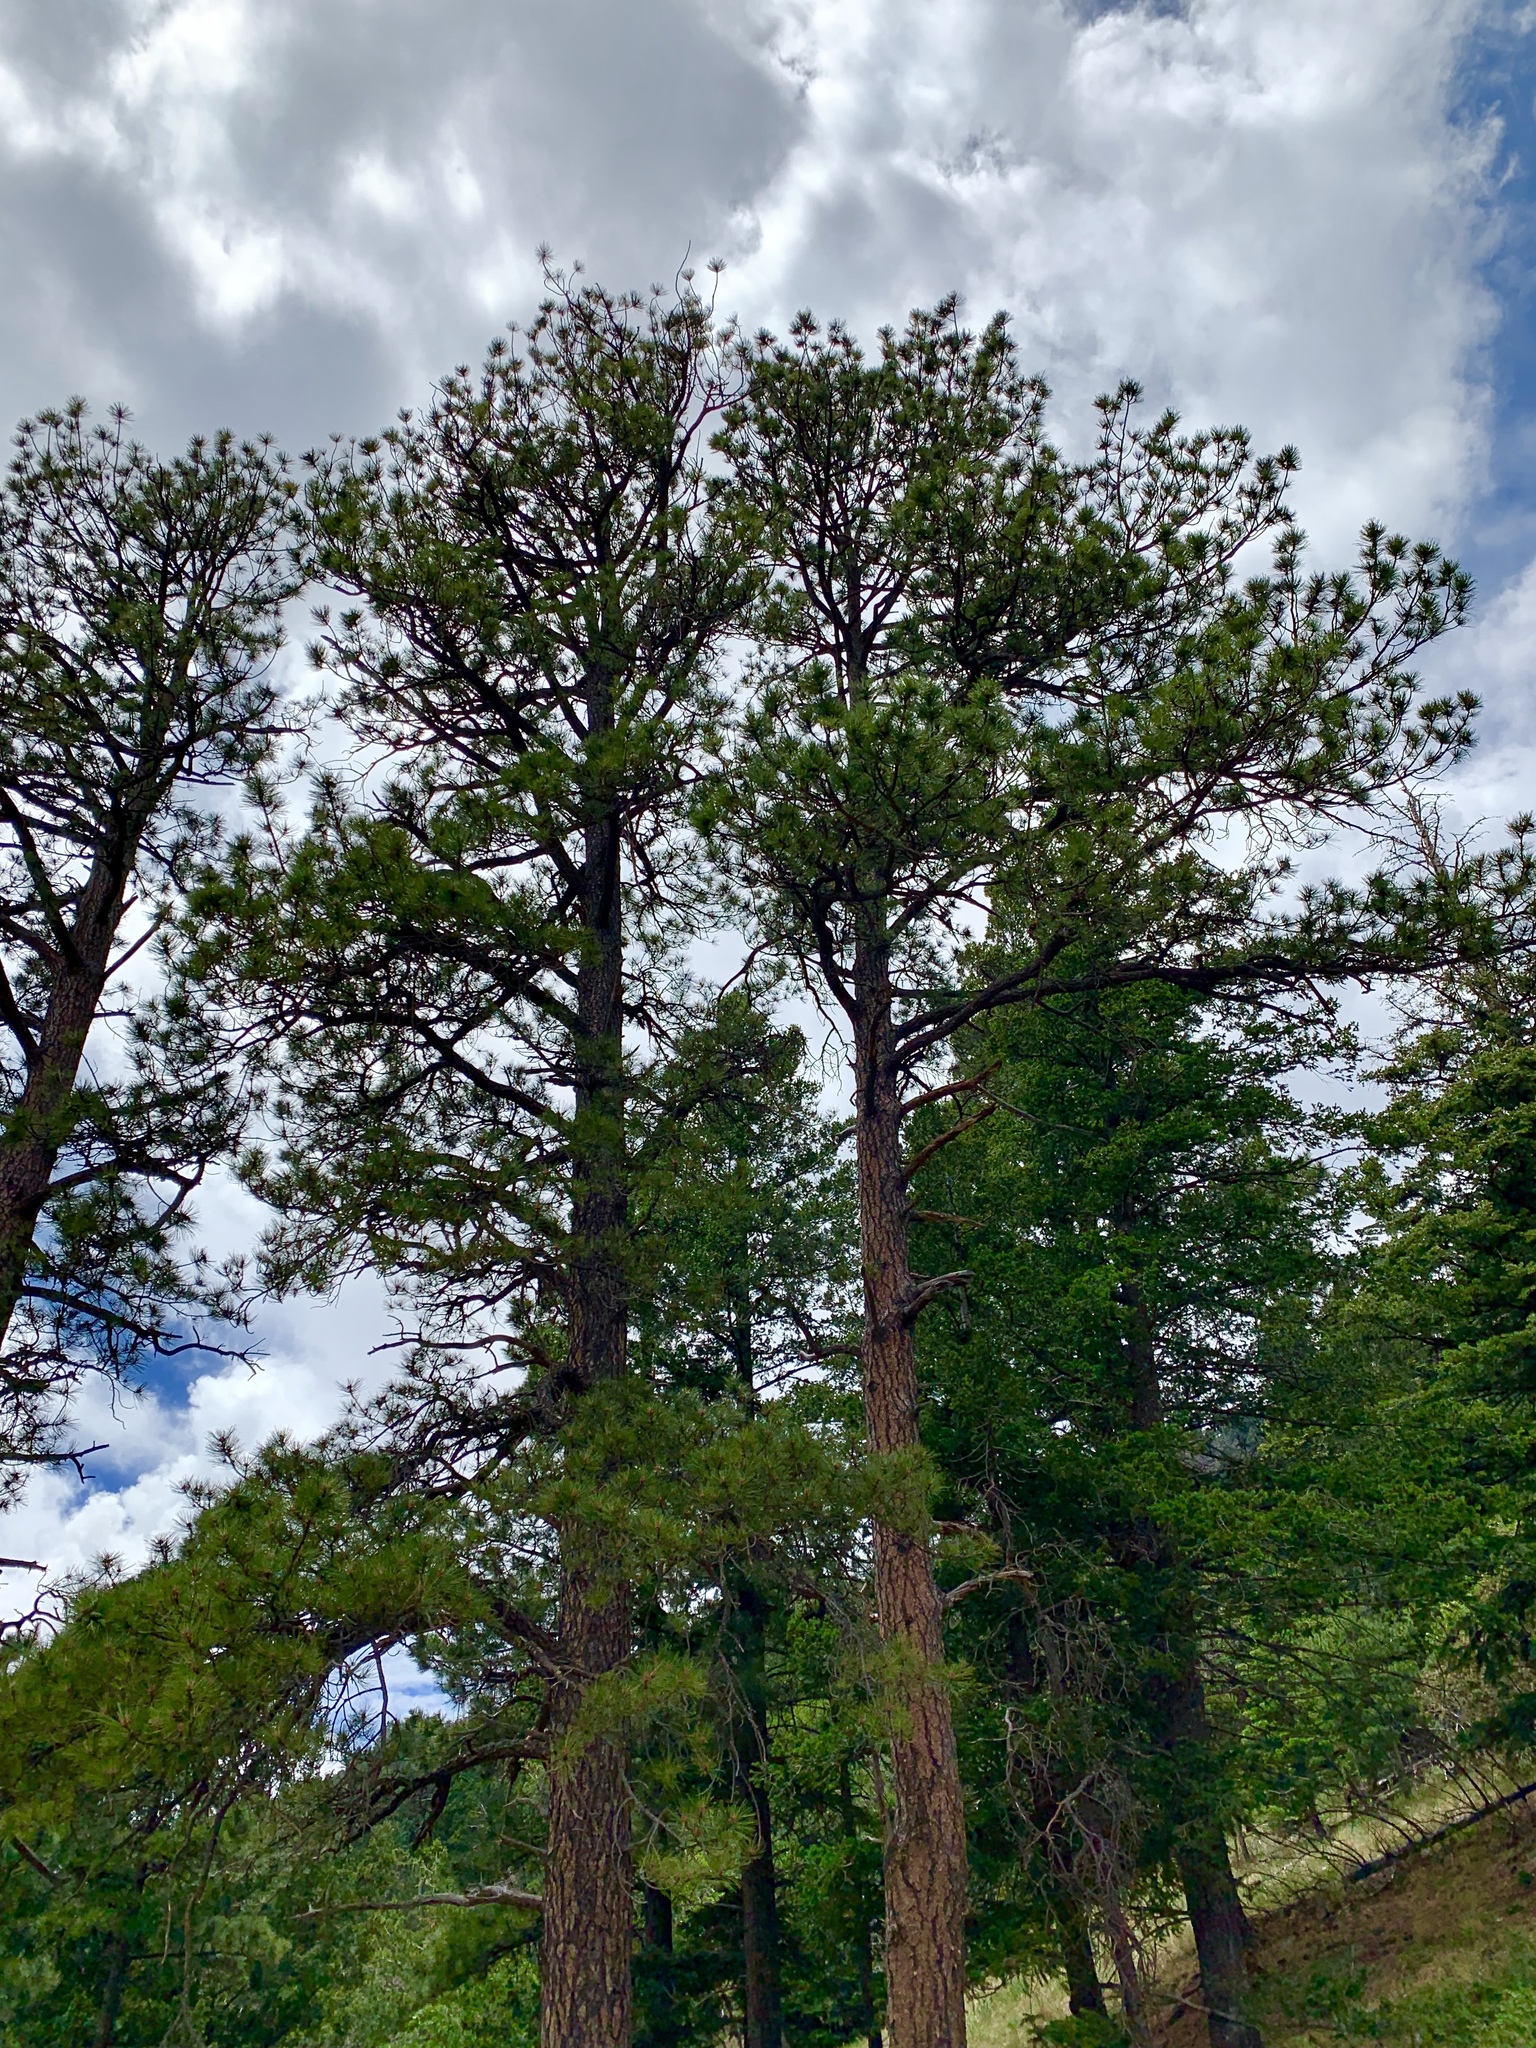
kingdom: Plantae
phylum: Tracheophyta
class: Pinopsida
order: Pinales
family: Pinaceae
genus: Pinus
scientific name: Pinus ponderosa
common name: Western yellow-pine
